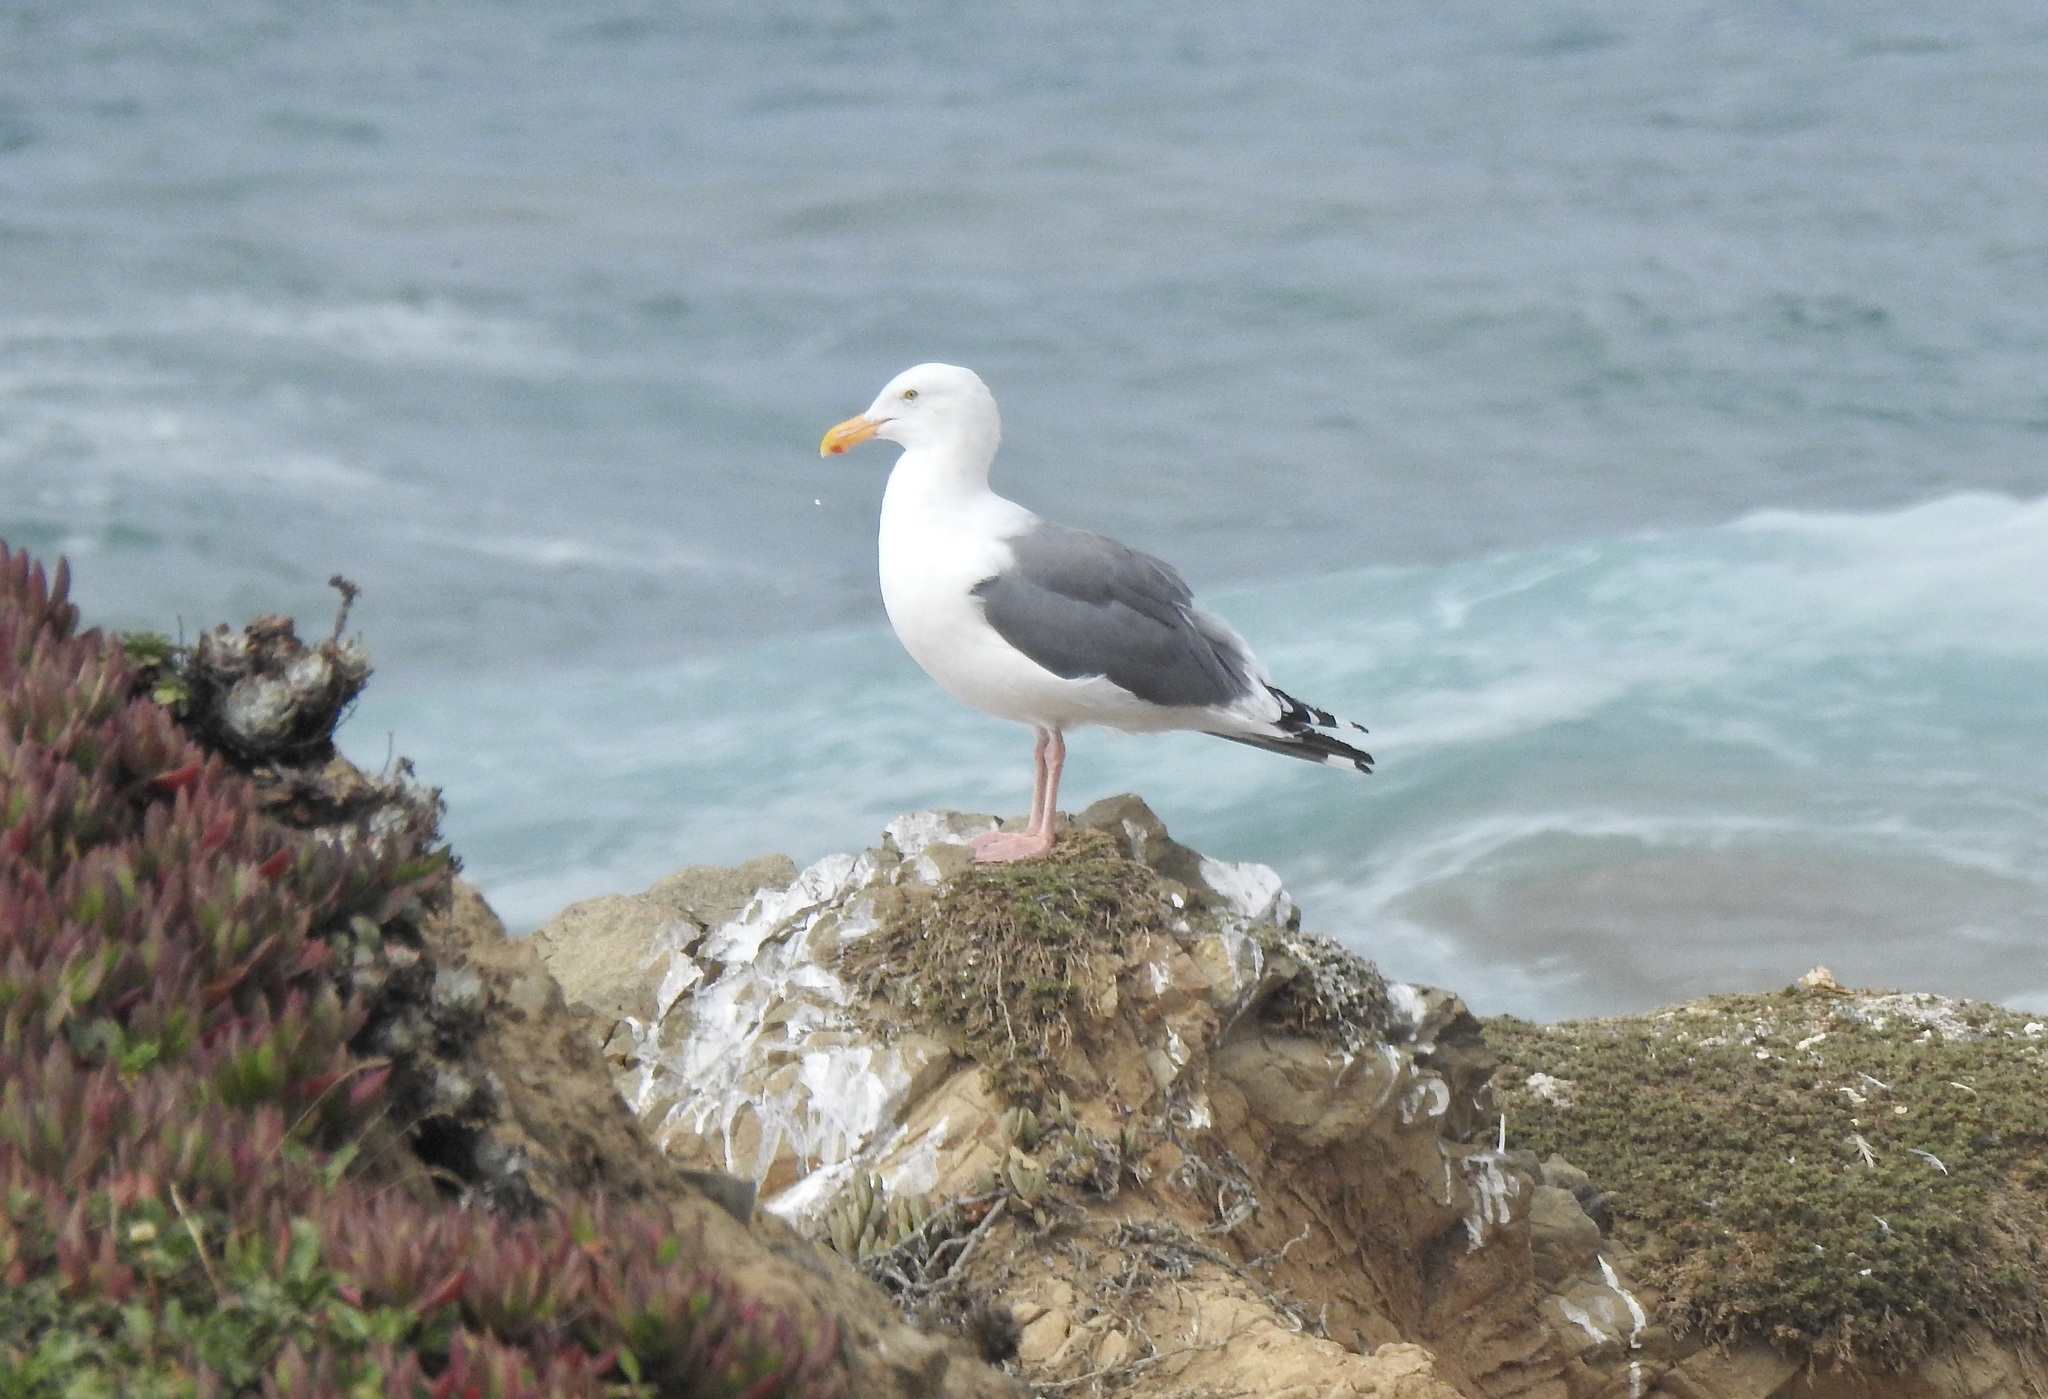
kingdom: Animalia
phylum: Chordata
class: Aves
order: Charadriiformes
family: Laridae
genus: Larus
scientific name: Larus occidentalis
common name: Western gull
